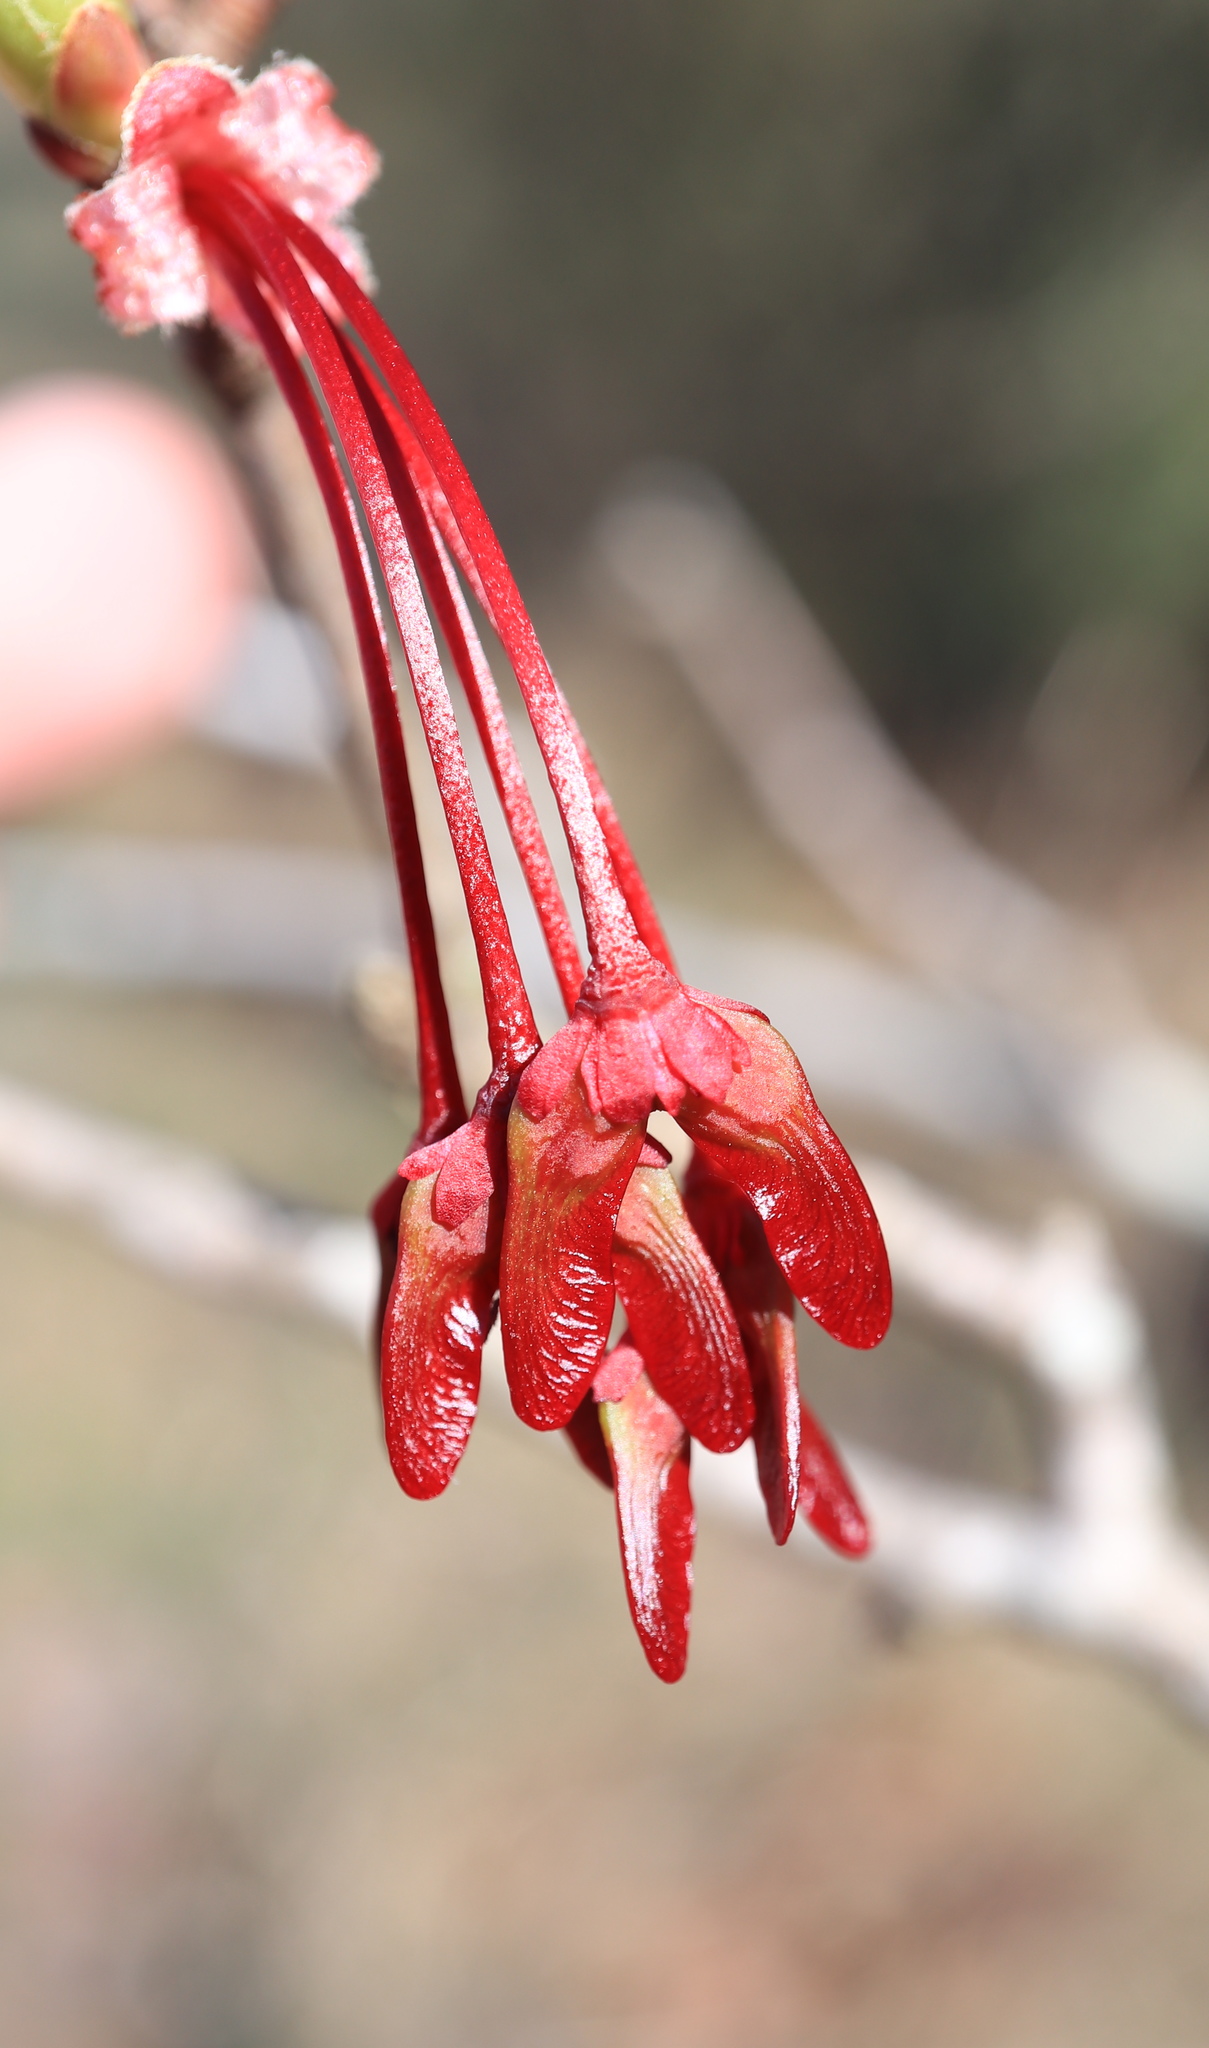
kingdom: Plantae
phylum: Tracheophyta
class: Magnoliopsida
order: Sapindales
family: Sapindaceae
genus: Acer
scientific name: Acer rubrum
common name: Red maple
